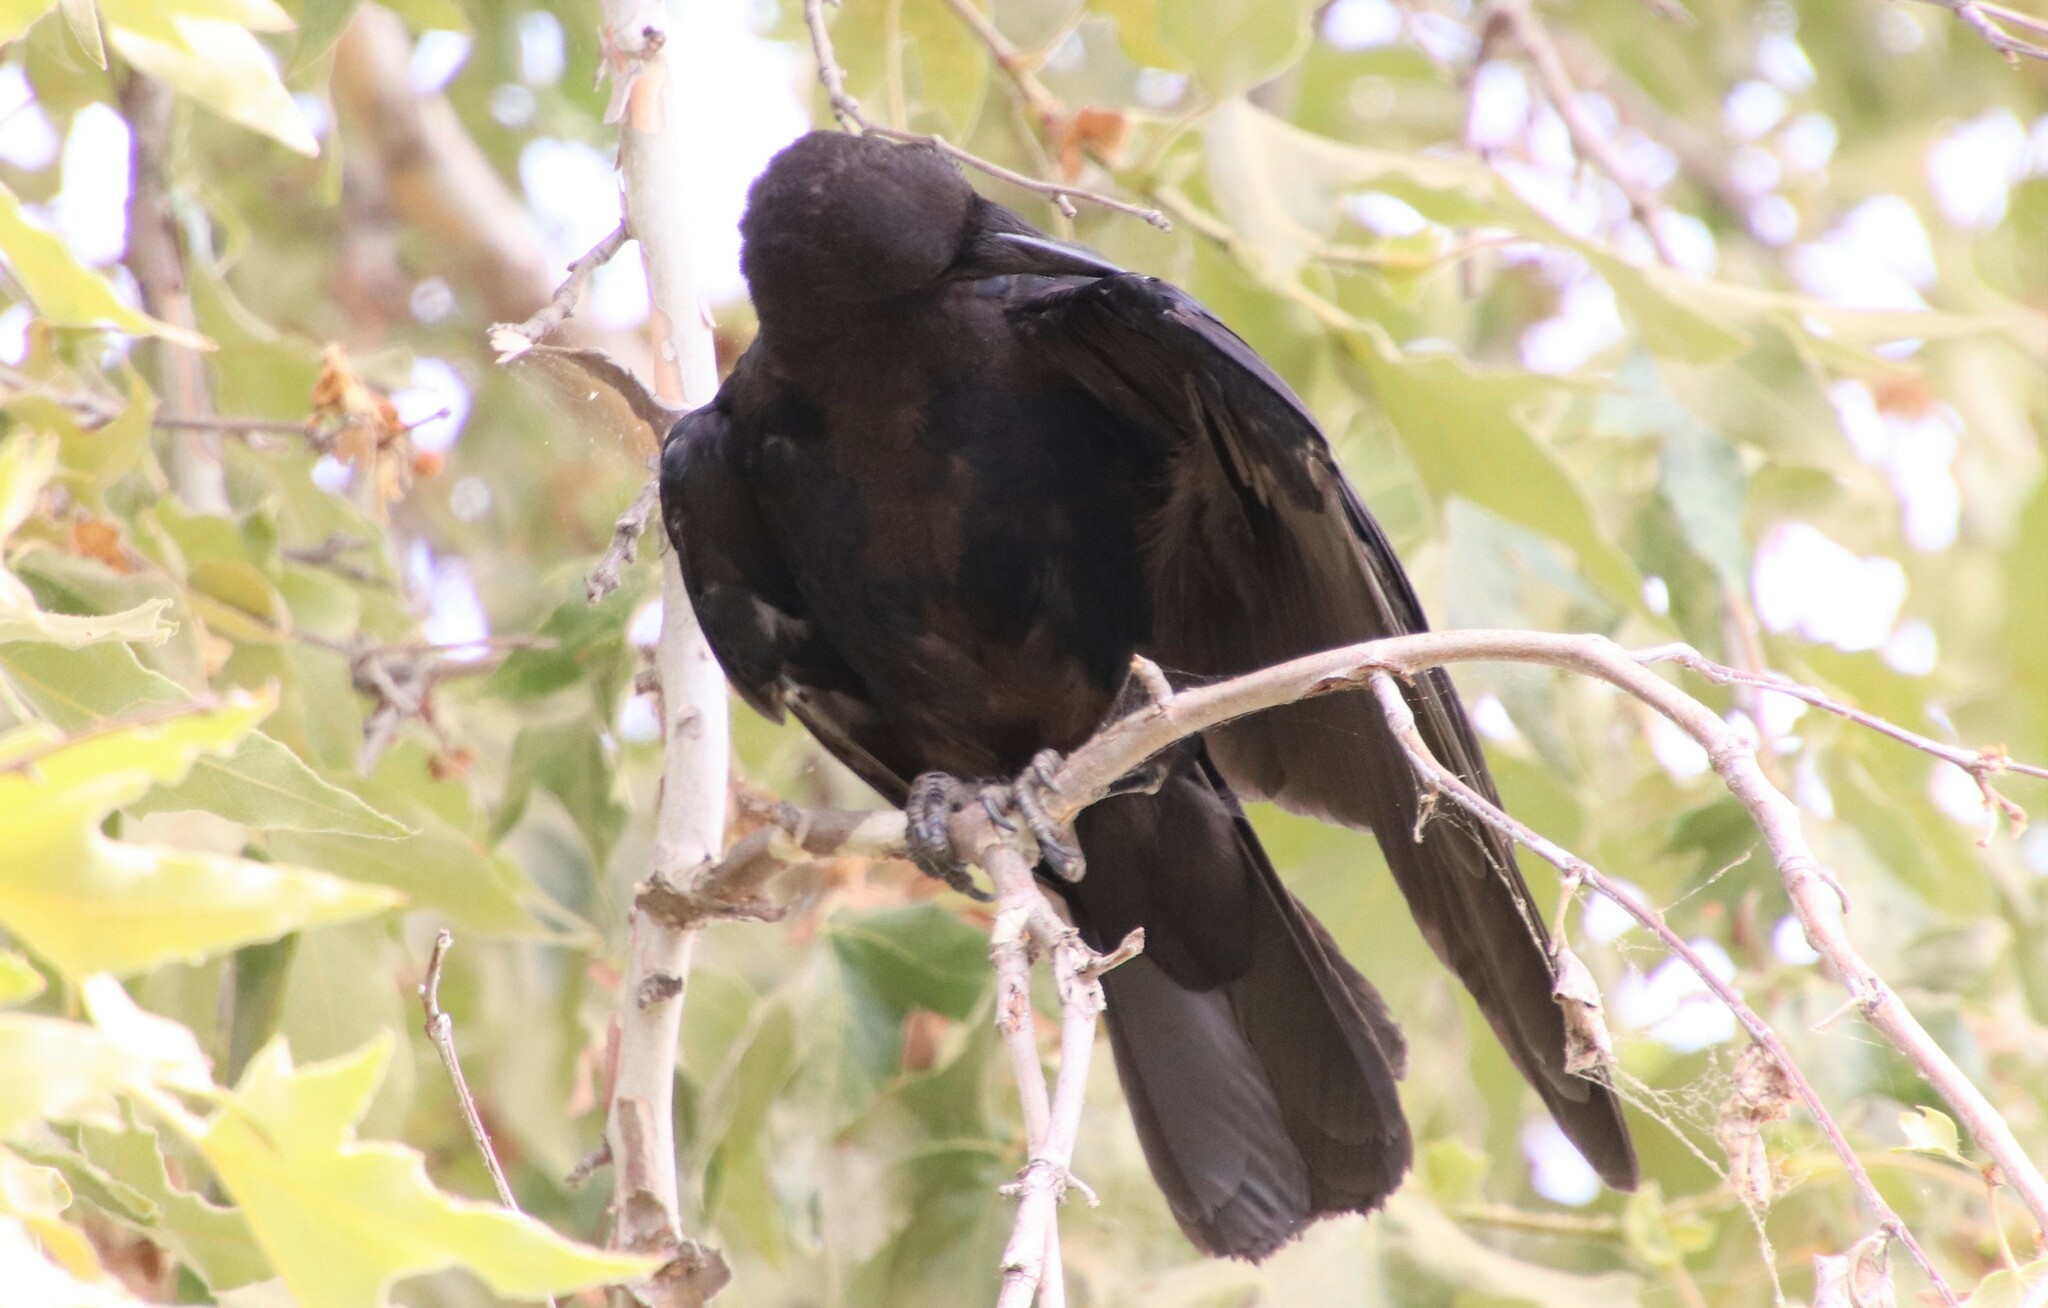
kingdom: Animalia
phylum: Chordata
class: Aves
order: Passeriformes
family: Corvidae
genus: Corvus
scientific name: Corvus brachyrhynchos
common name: American crow
